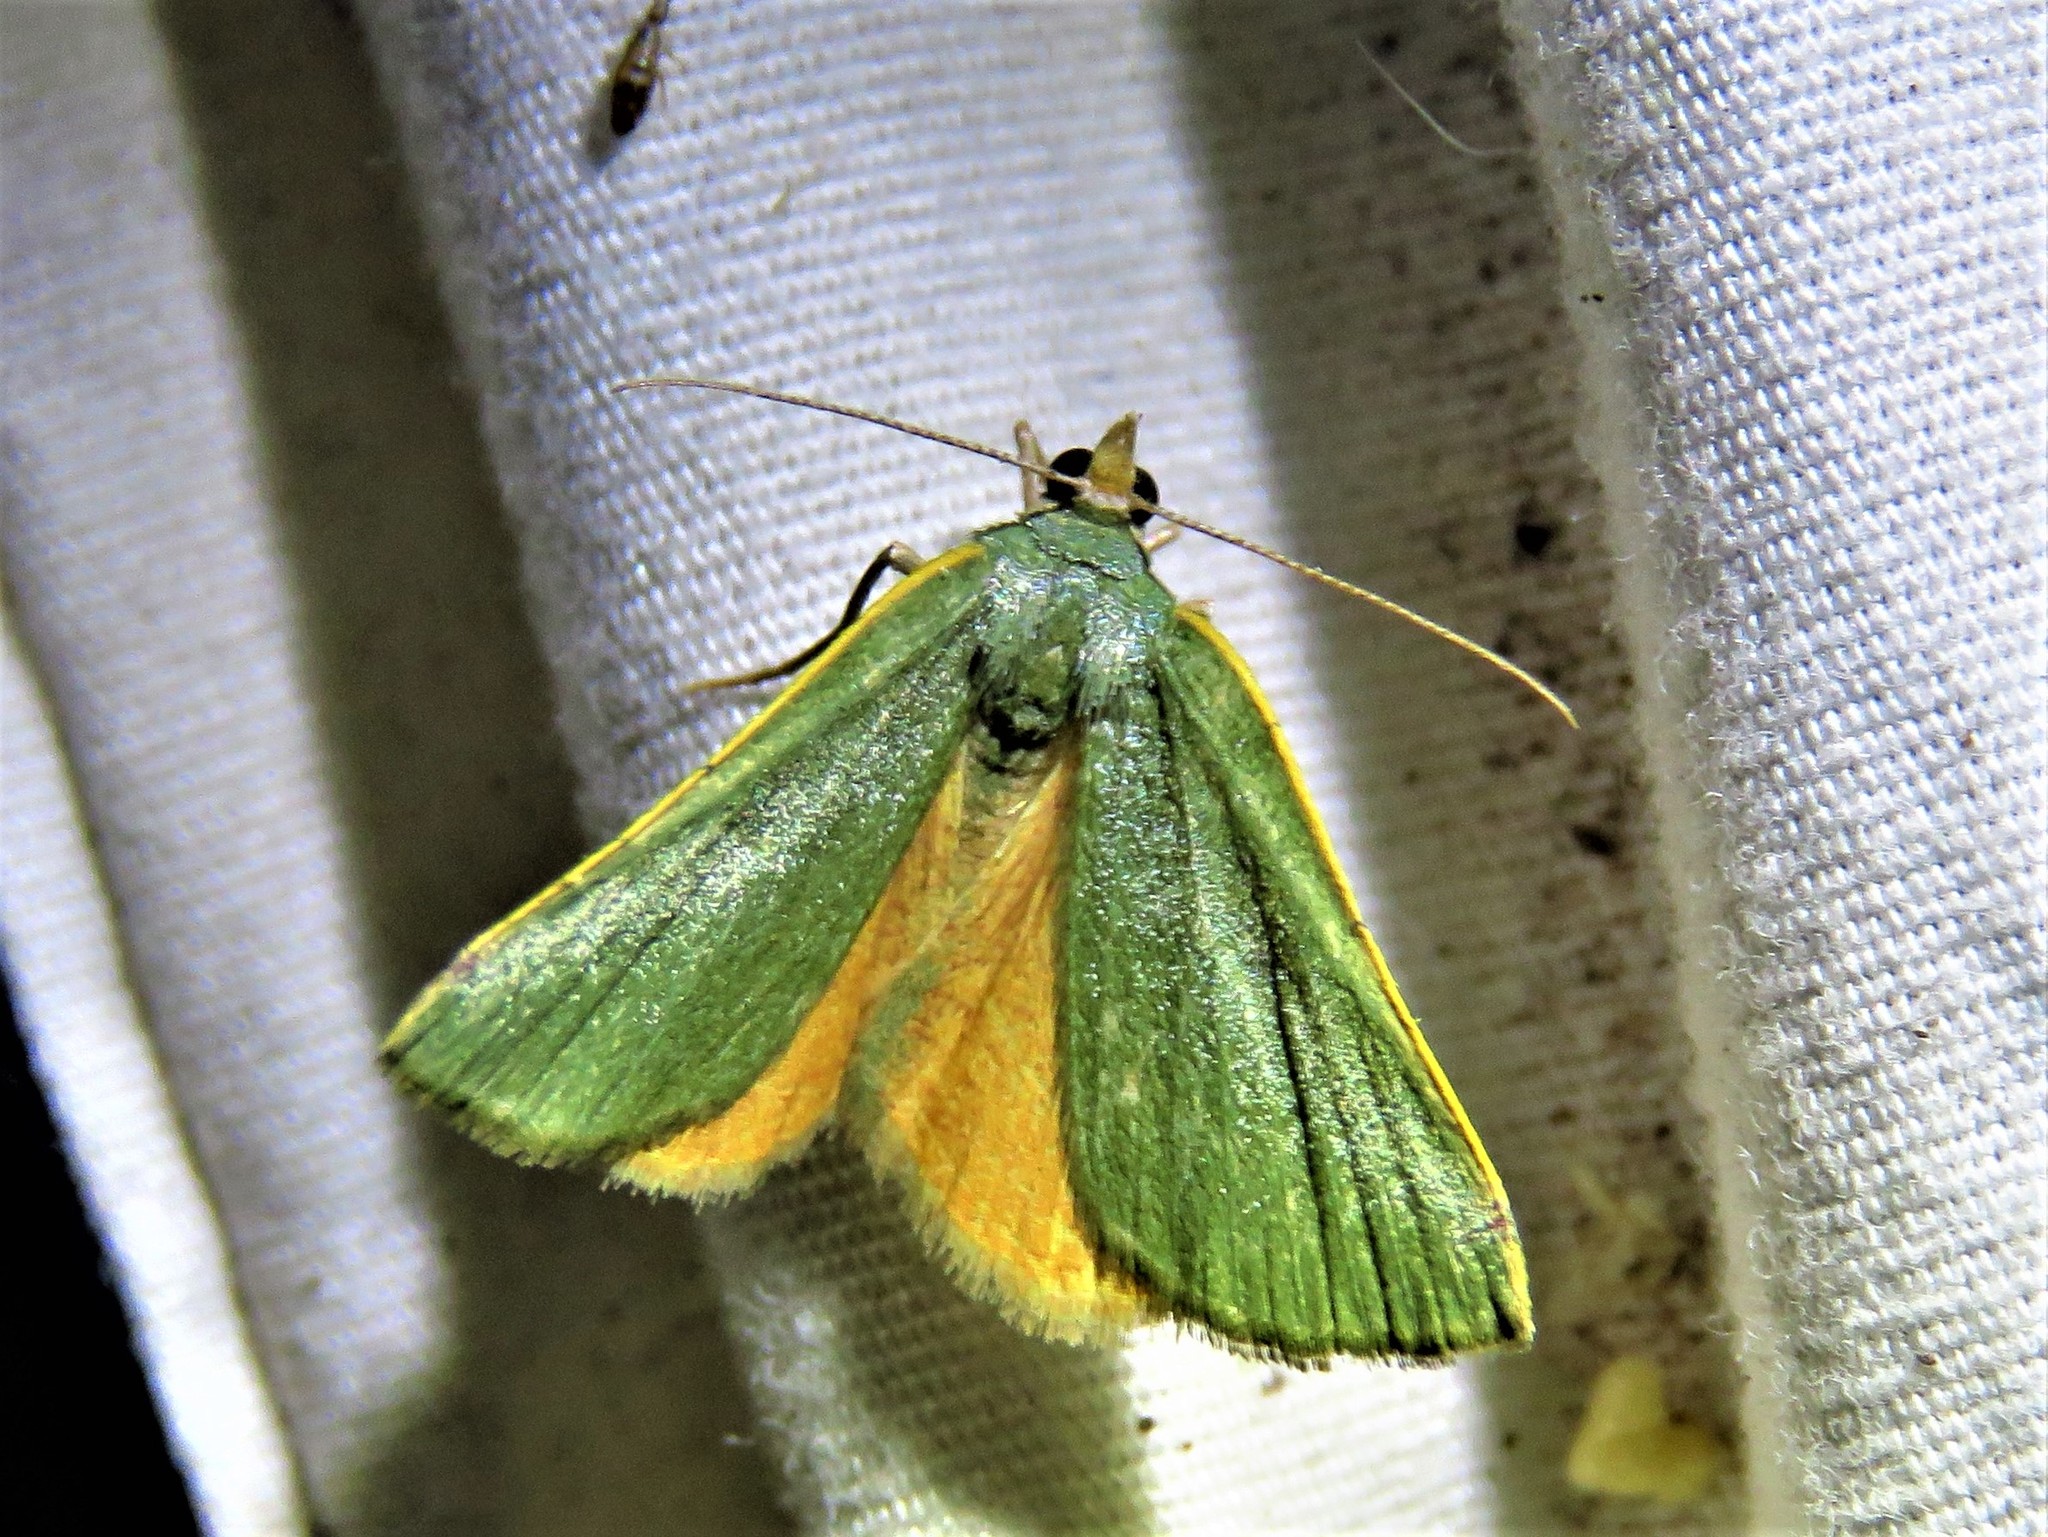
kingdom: Animalia
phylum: Arthropoda
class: Insecta
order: Lepidoptera
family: Geometridae
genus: Chloraspilates
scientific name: Chloraspilates bicoloraria
